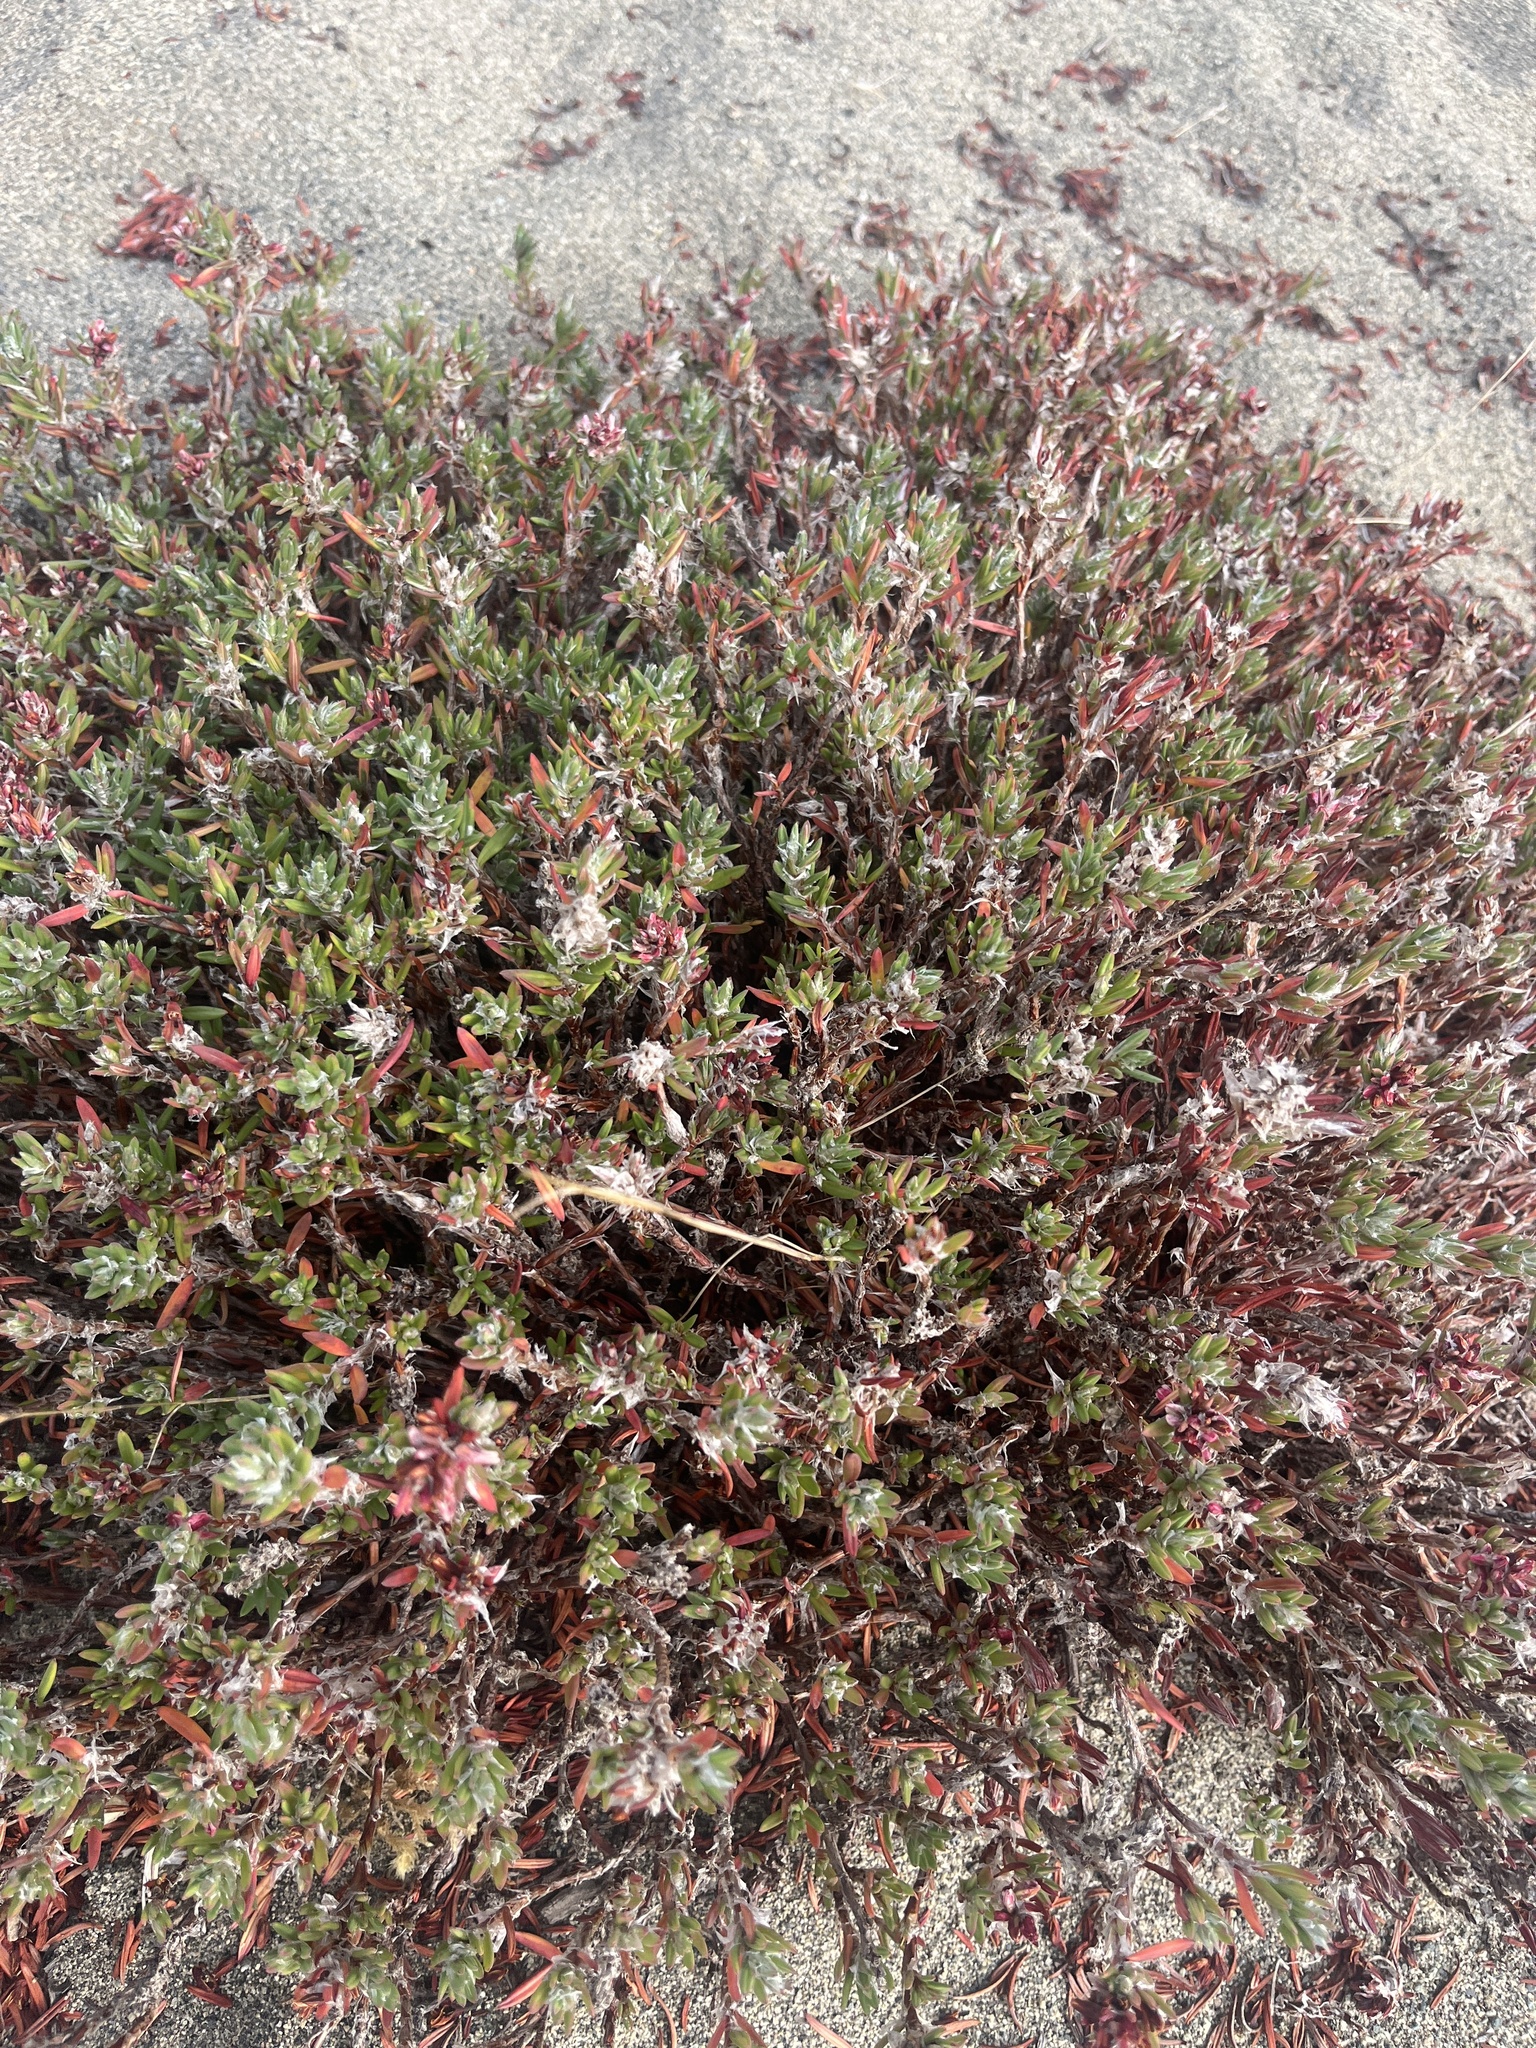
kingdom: Plantae
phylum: Tracheophyta
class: Magnoliopsida
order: Caryophyllales
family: Polygonaceae
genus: Polygonum
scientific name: Polygonum paronychia
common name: Dune knotweed
